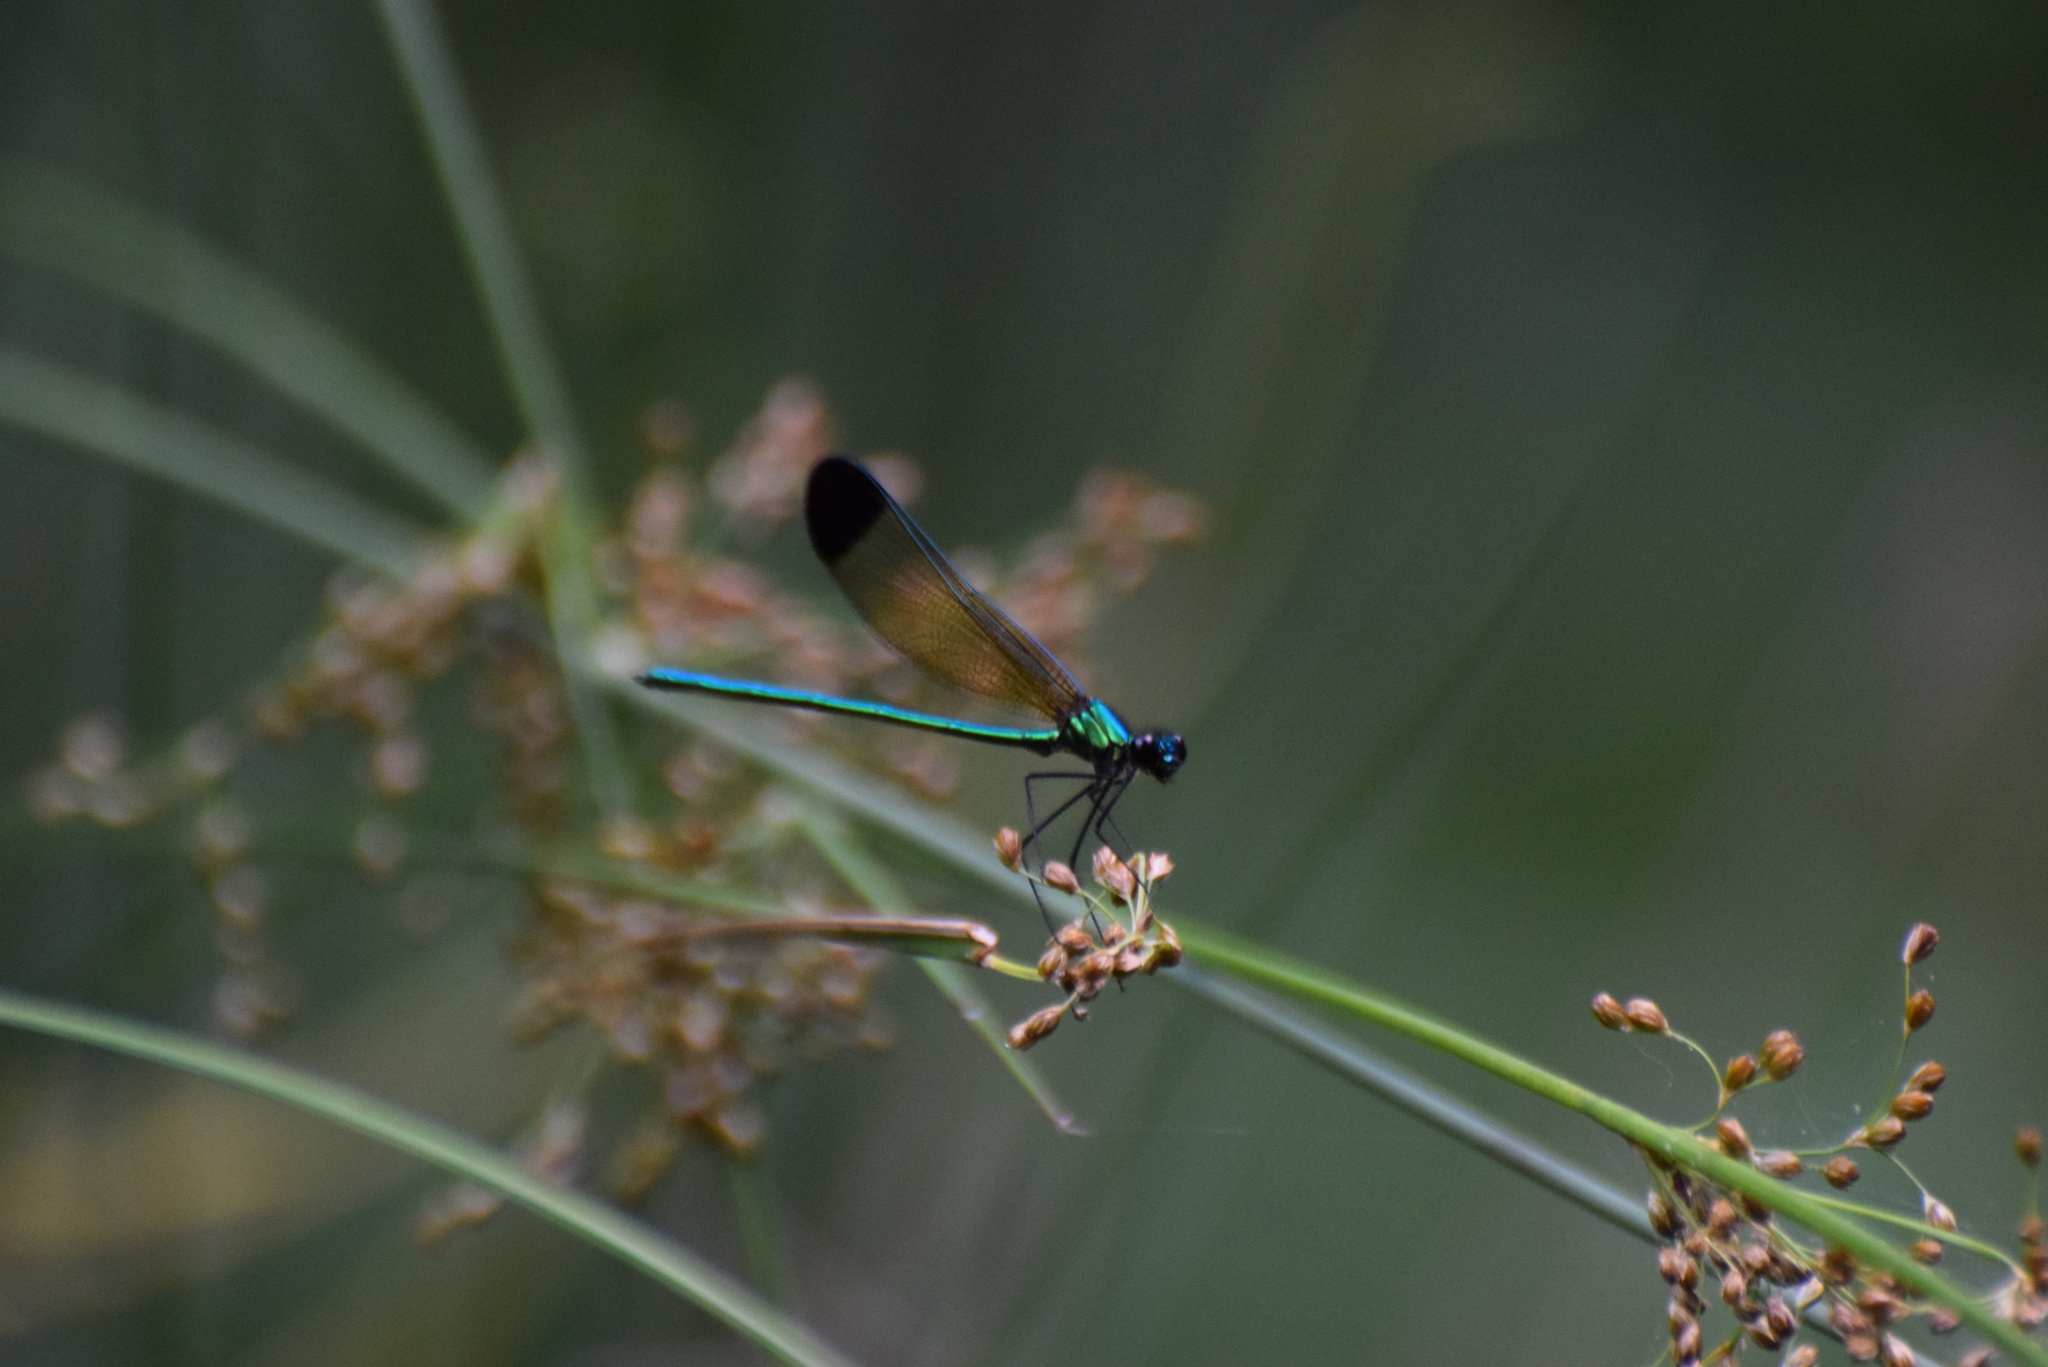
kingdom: Animalia
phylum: Arthropoda
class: Insecta
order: Odonata
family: Calopterygidae
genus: Calopteryx
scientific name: Calopteryx dimidiata
